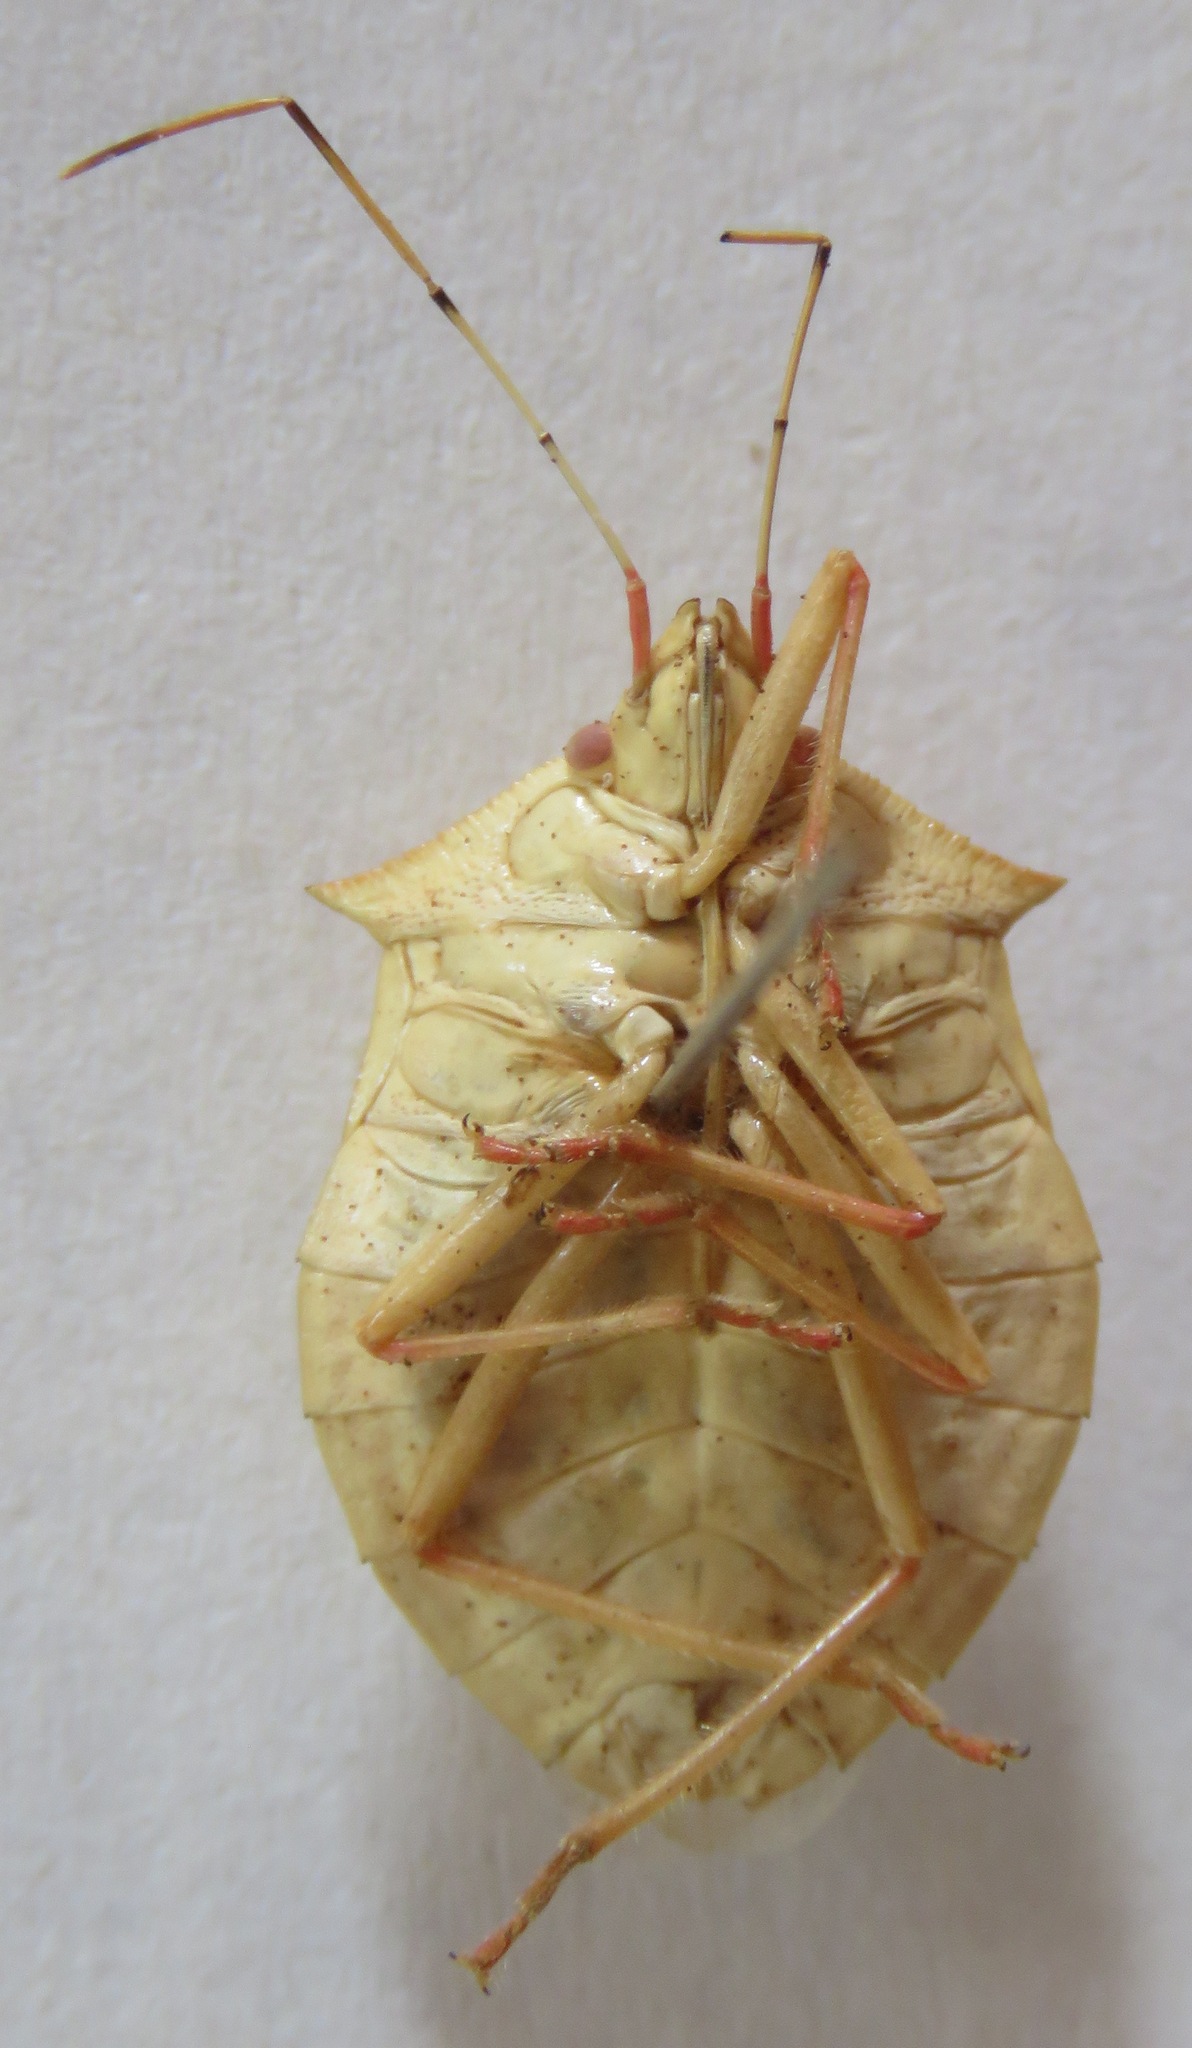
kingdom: Animalia
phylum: Arthropoda
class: Insecta
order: Hemiptera
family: Pentatomidae
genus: Chlorocoris
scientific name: Chlorocoris distinctus
